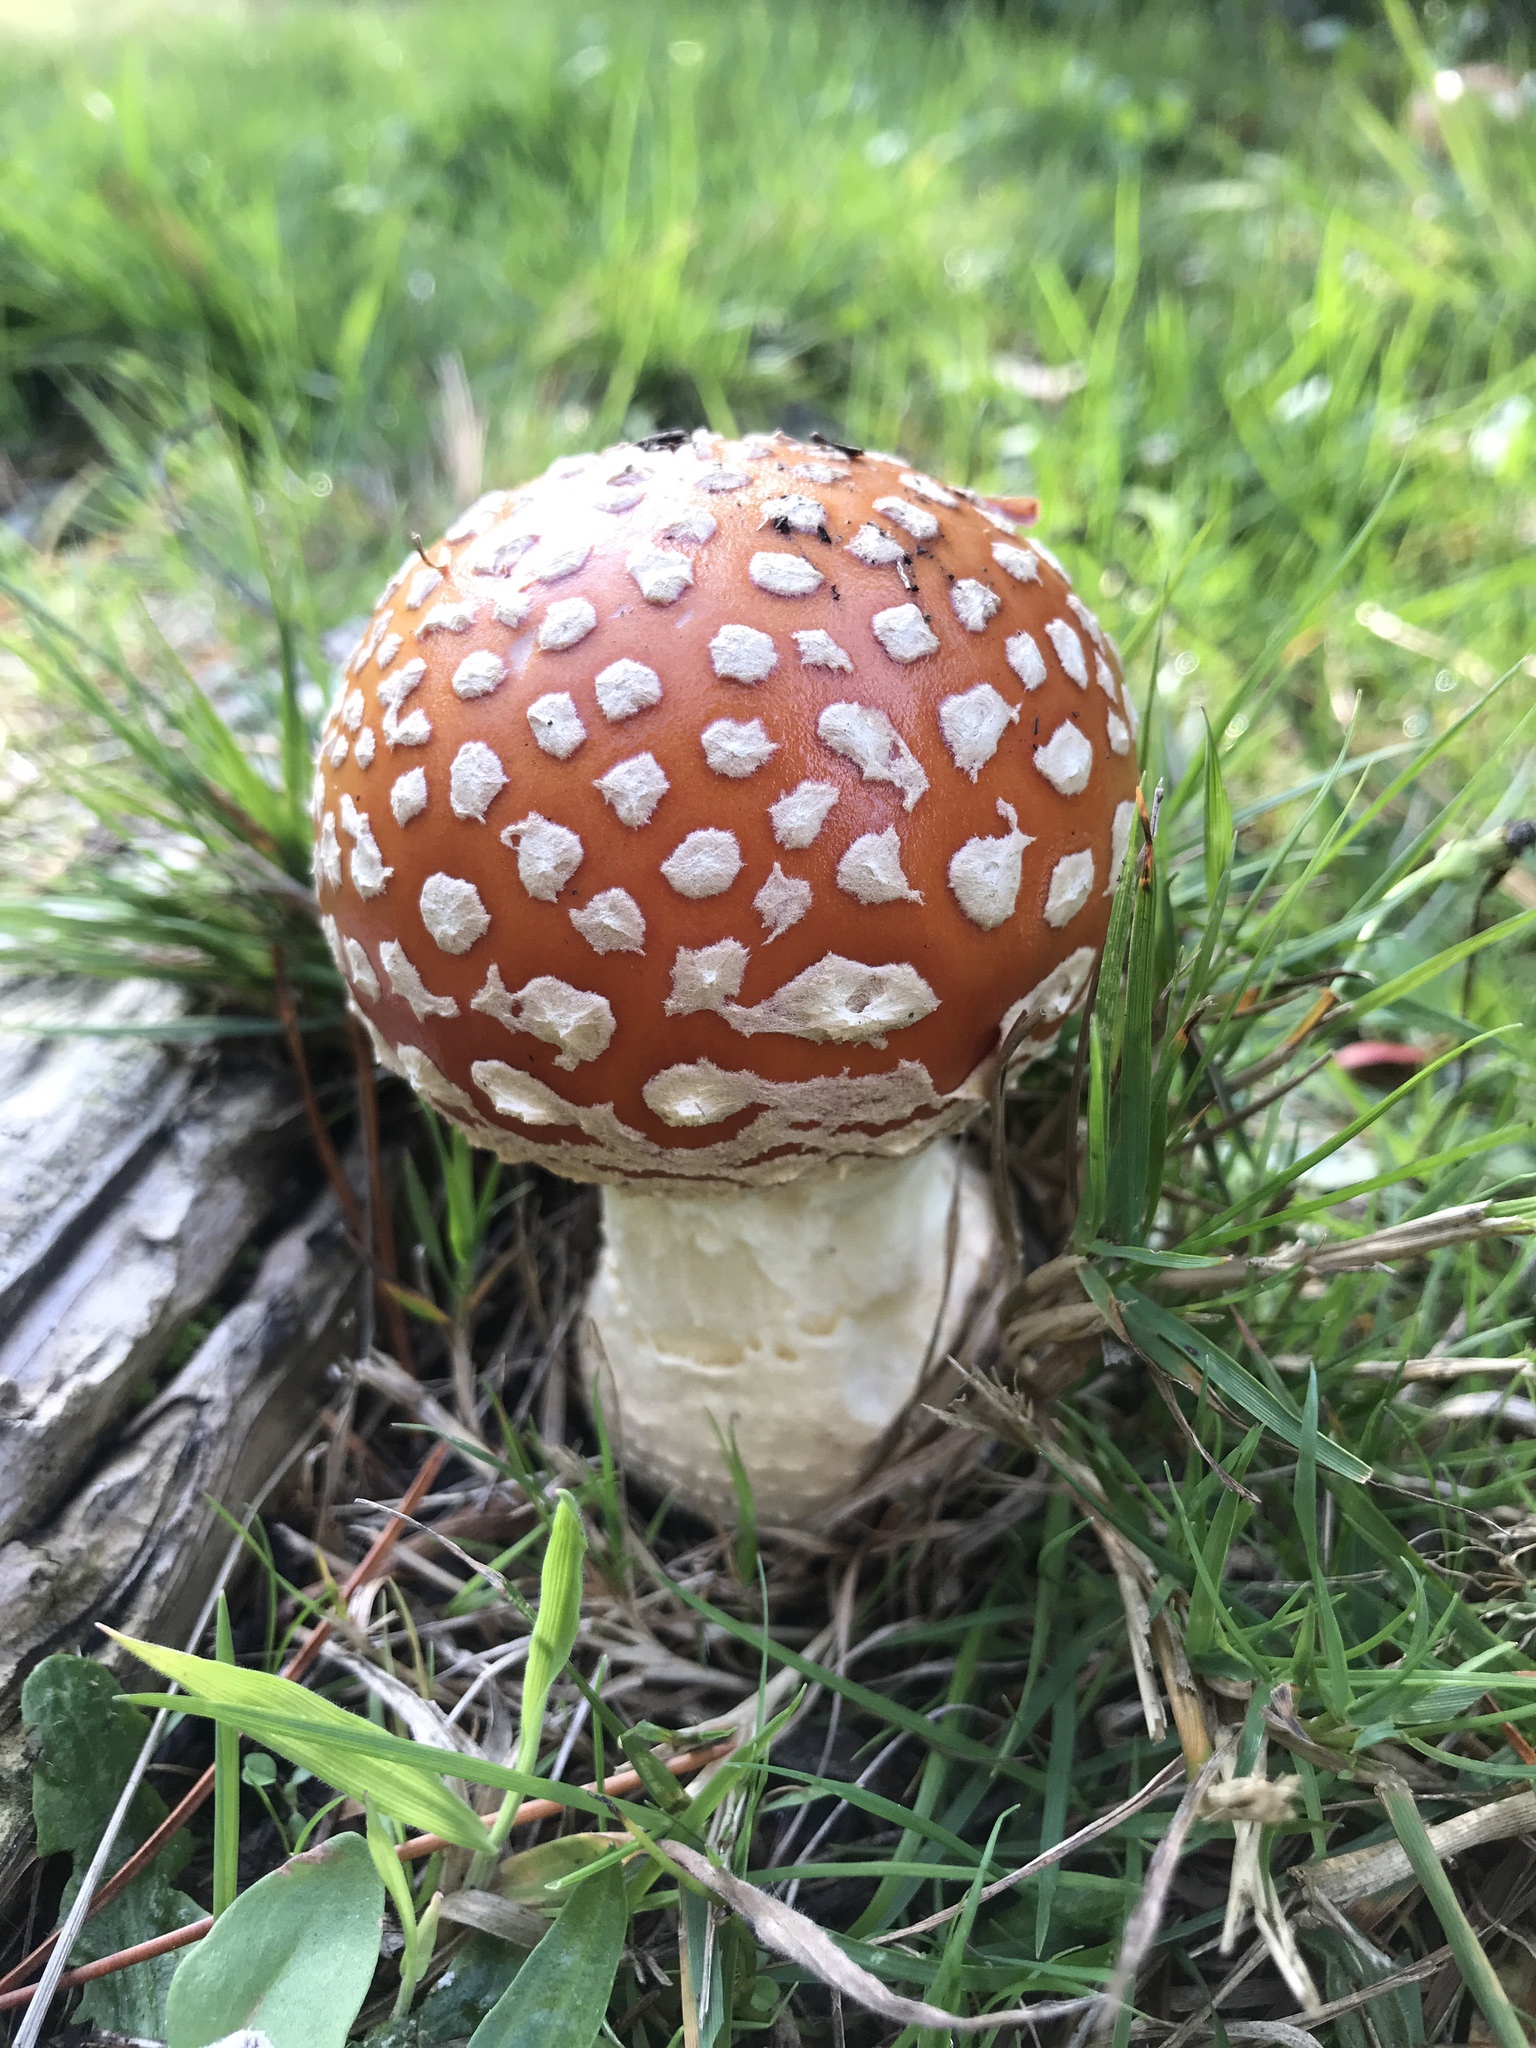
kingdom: Fungi
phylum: Basidiomycota
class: Agaricomycetes
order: Agaricales
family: Amanitaceae
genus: Amanita
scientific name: Amanita muscaria
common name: Fly agaric
